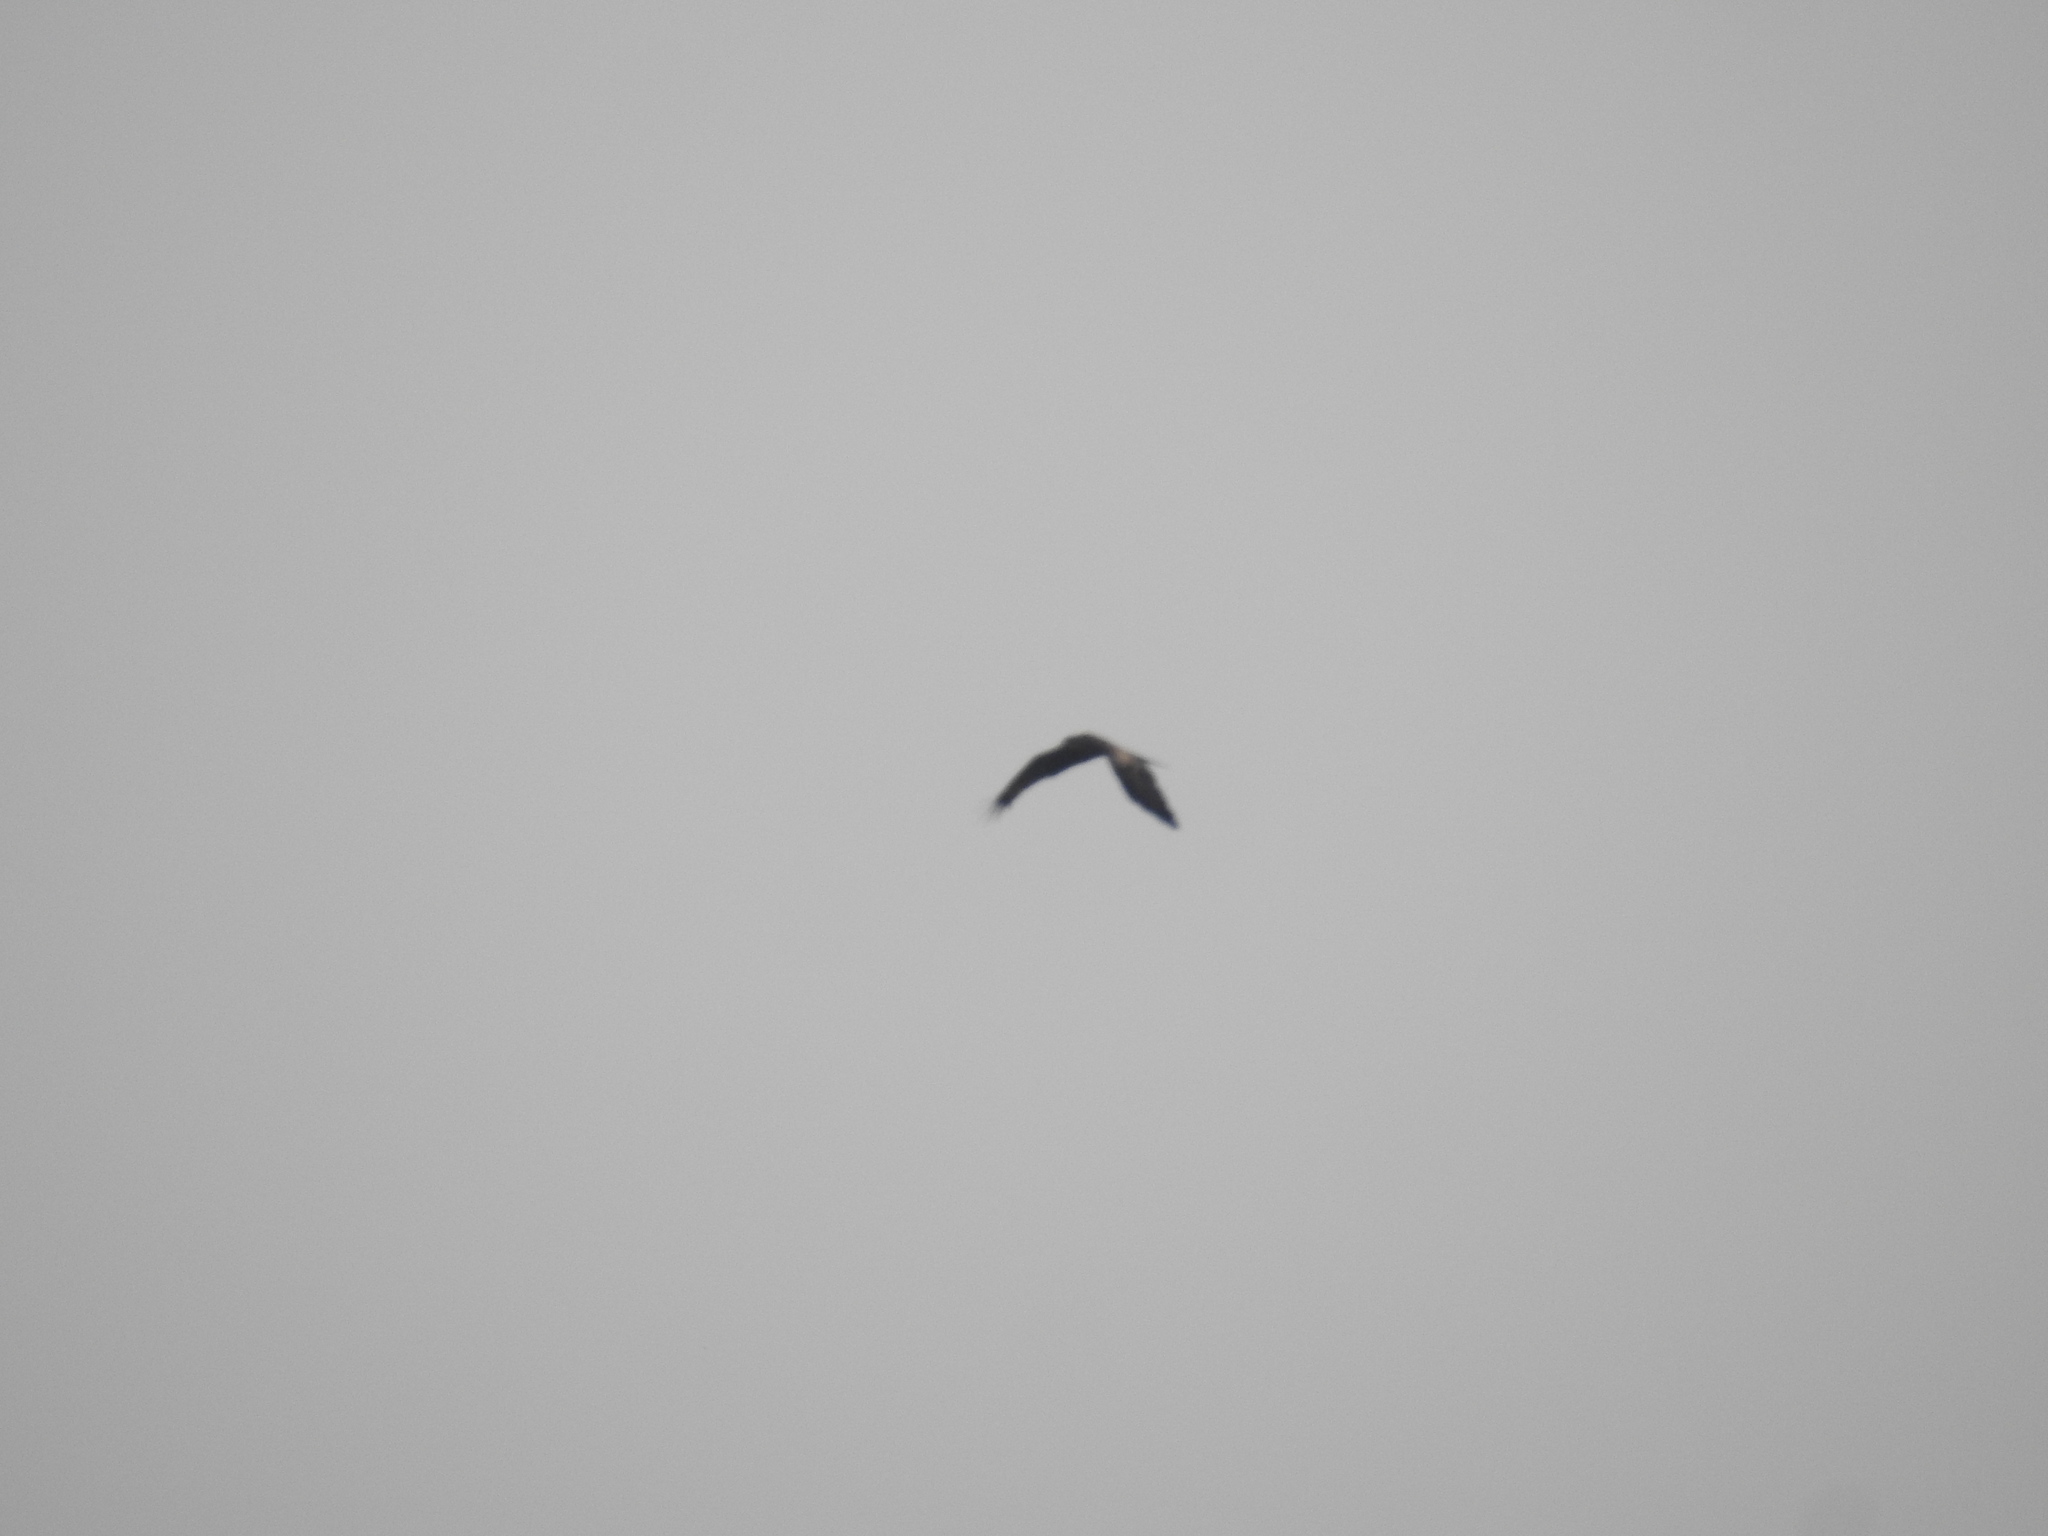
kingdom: Animalia
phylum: Chordata
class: Aves
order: Accipitriformes
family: Accipitridae
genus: Milvus
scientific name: Milvus migrans
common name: Black kite
